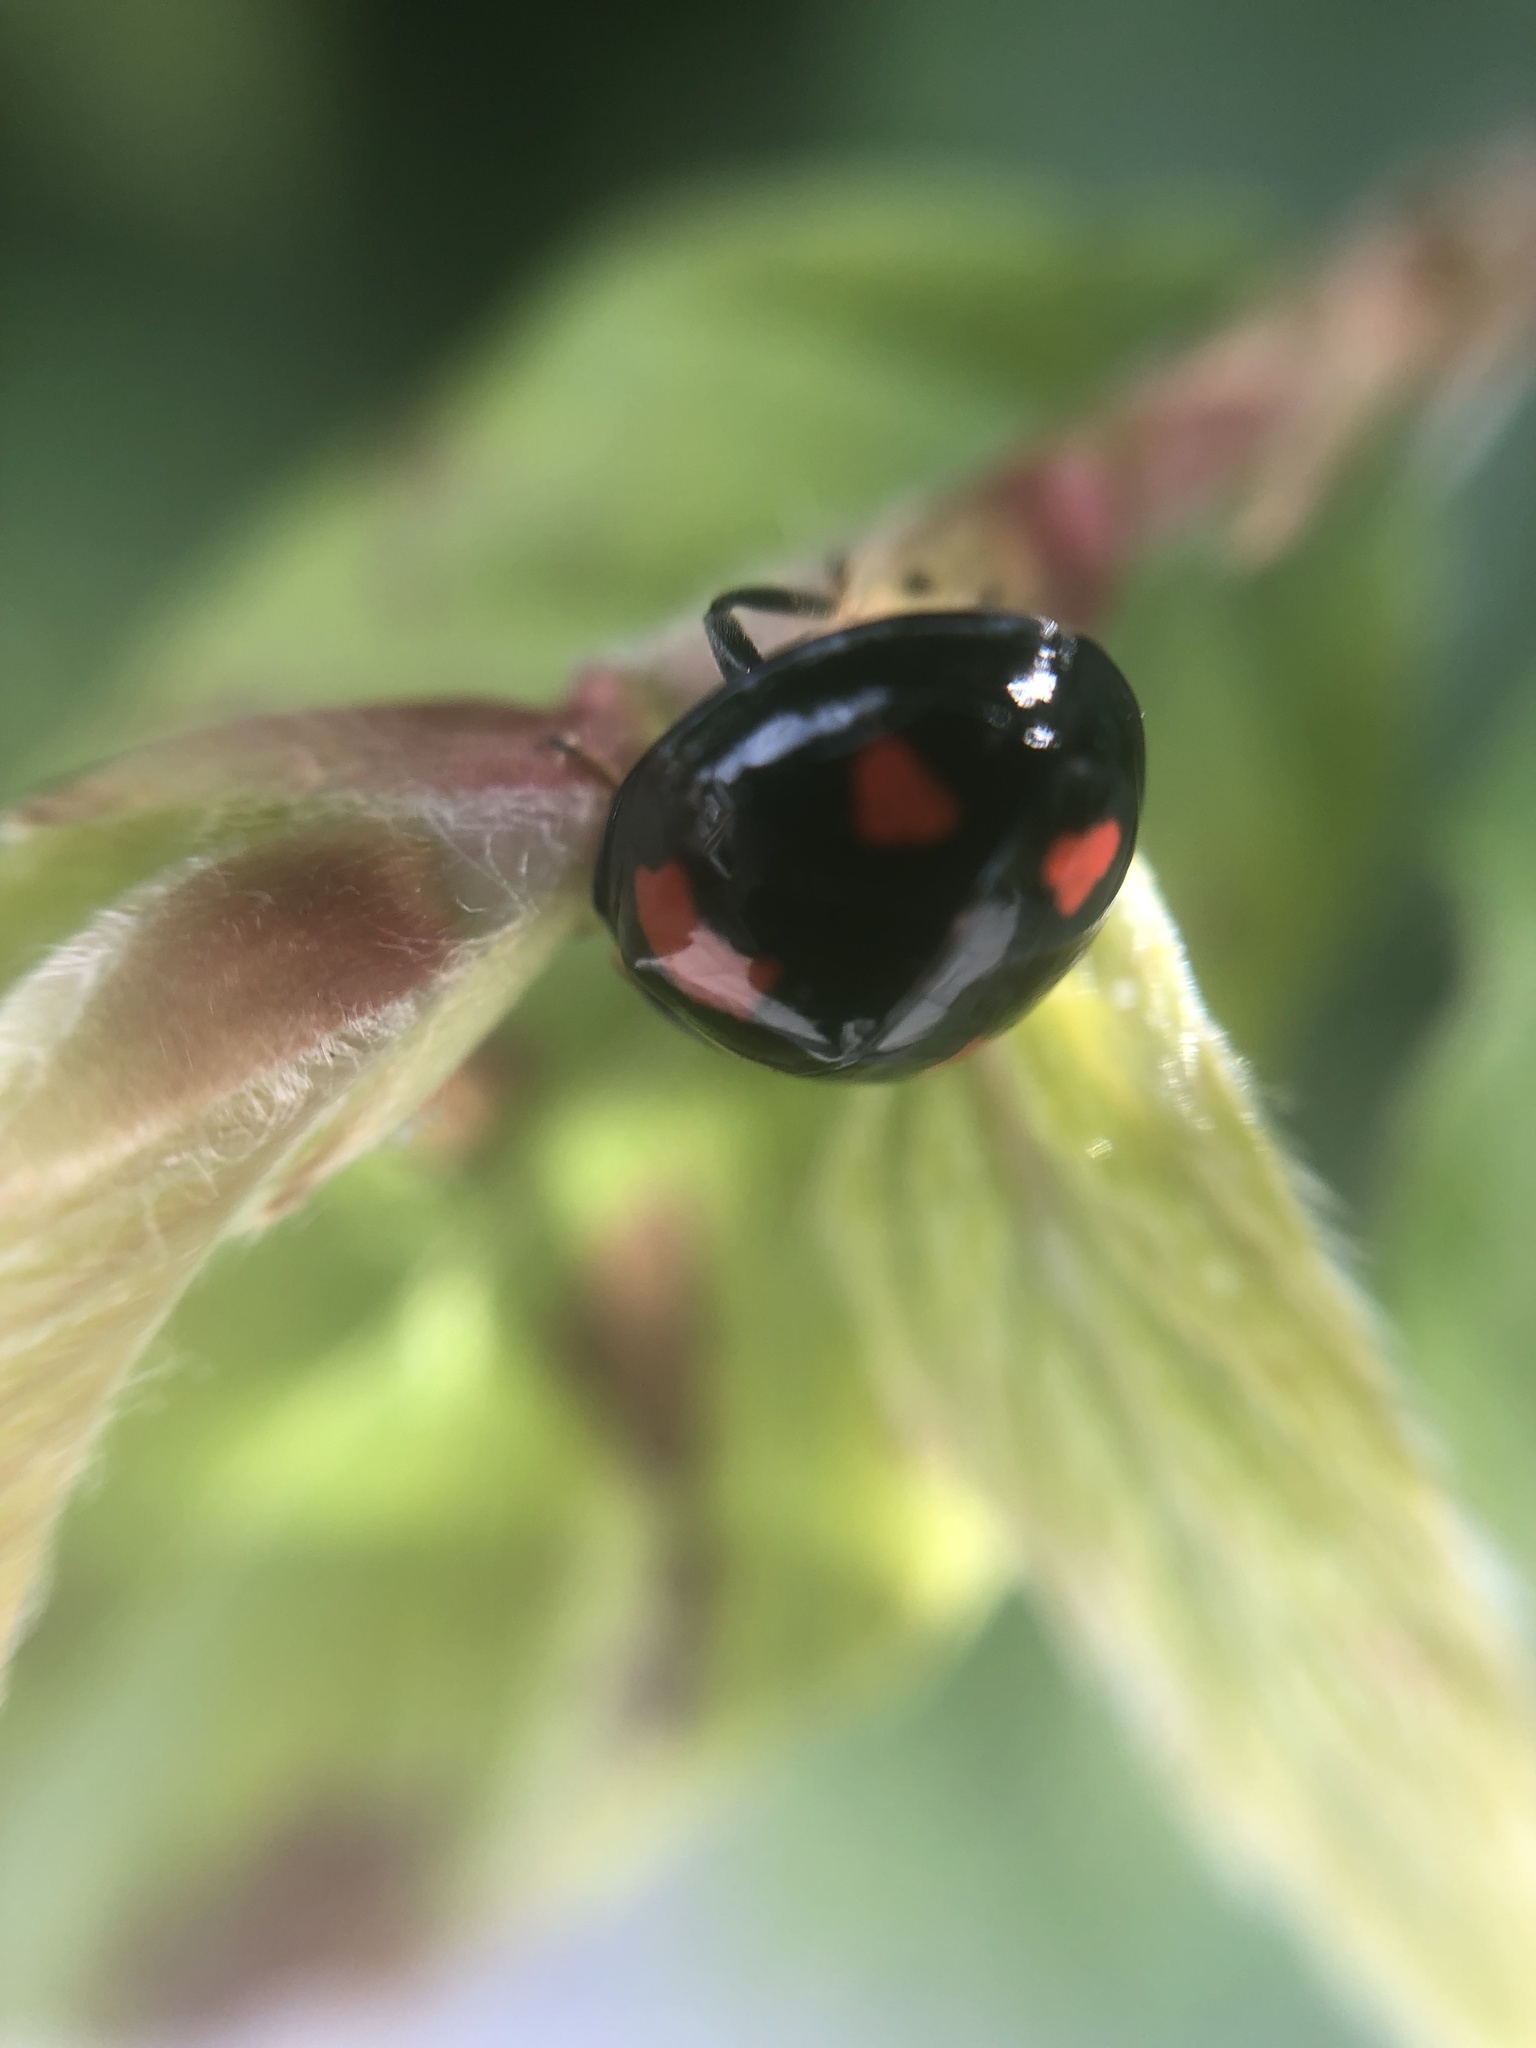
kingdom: Animalia
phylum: Arthropoda
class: Insecta
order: Coleoptera
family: Coccinellidae
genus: Harmonia
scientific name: Harmonia axyridis
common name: Harlequin ladybird
